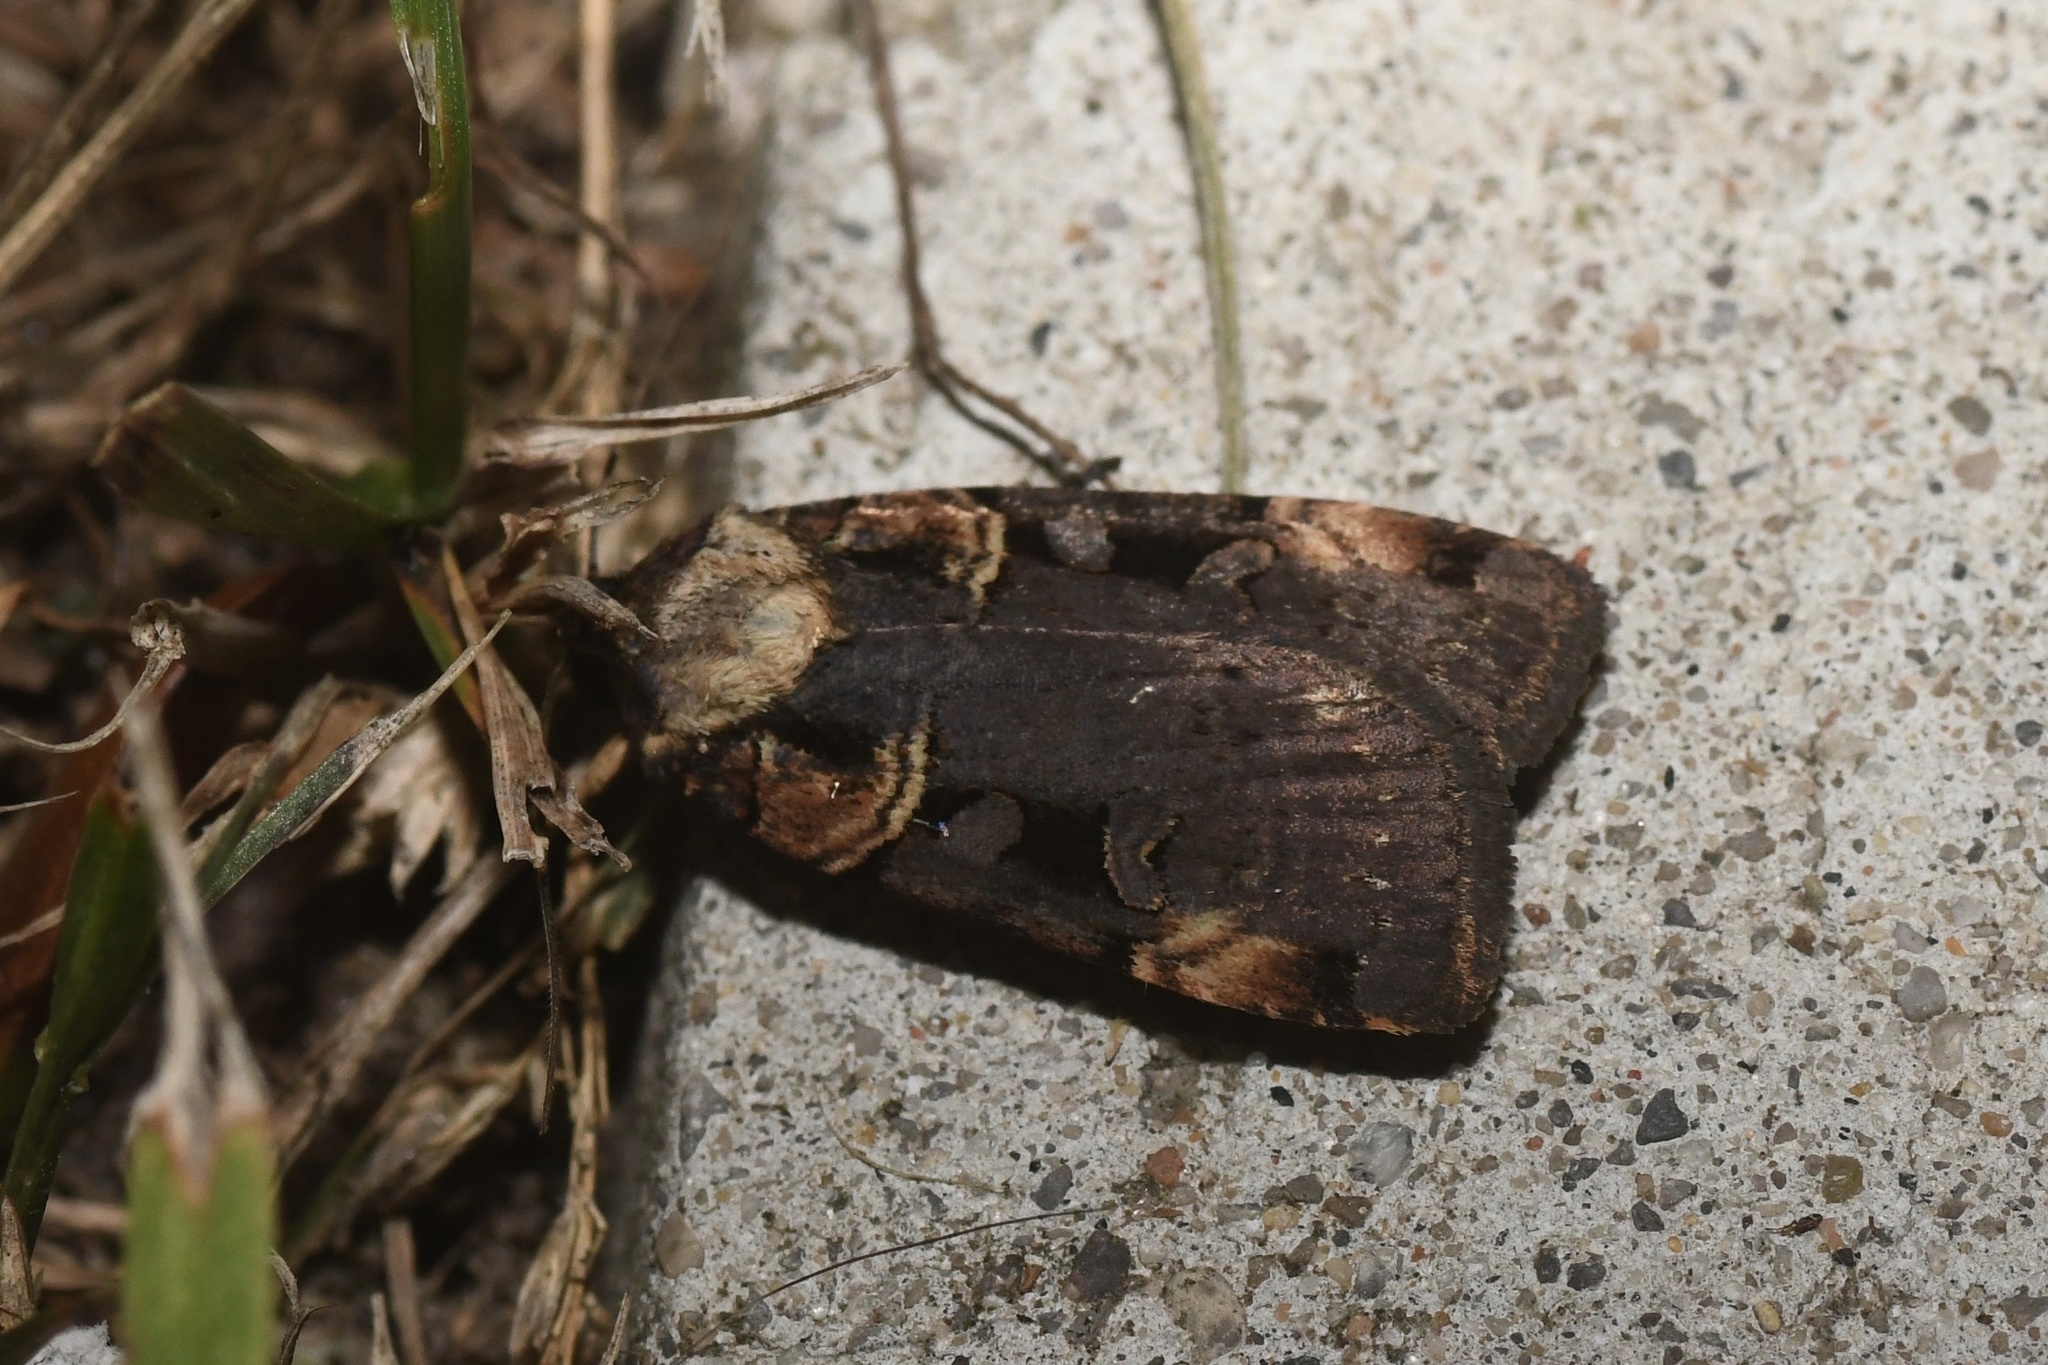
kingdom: Animalia
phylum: Arthropoda
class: Insecta
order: Lepidoptera
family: Noctuidae
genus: Pseudohermonassa
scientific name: Pseudohermonassa bicarnea
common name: Pink spotted dart
